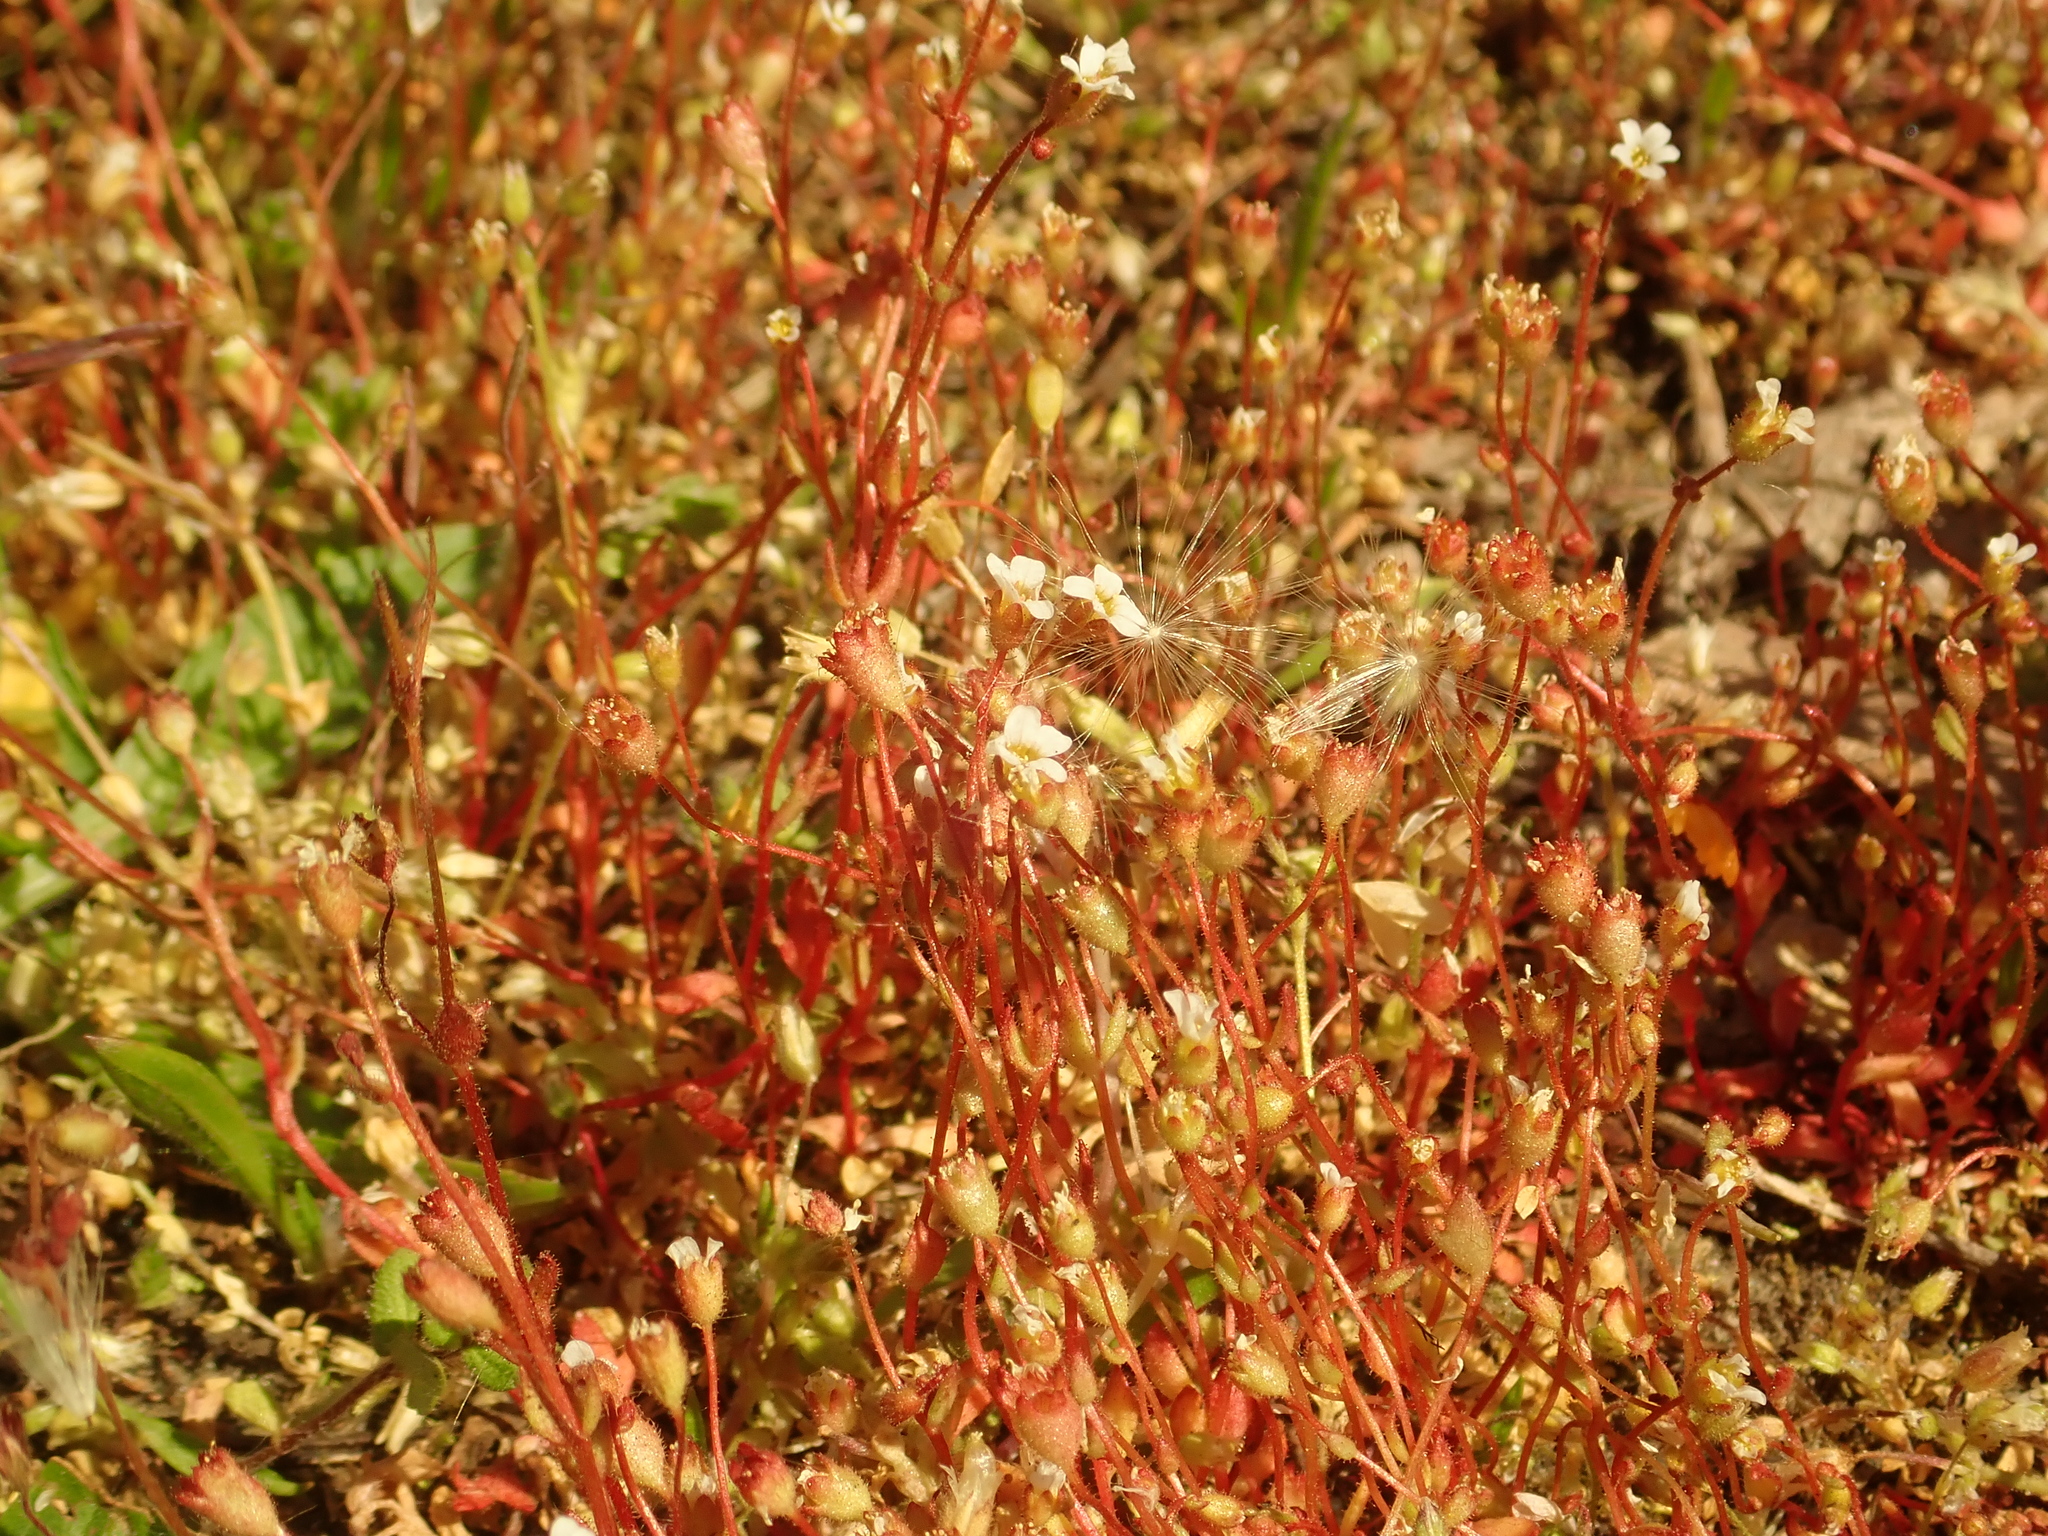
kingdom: Plantae
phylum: Tracheophyta
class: Magnoliopsida
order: Saxifragales
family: Saxifragaceae
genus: Saxifraga
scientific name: Saxifraga tridactylites
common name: Rue-leaved saxifrage
